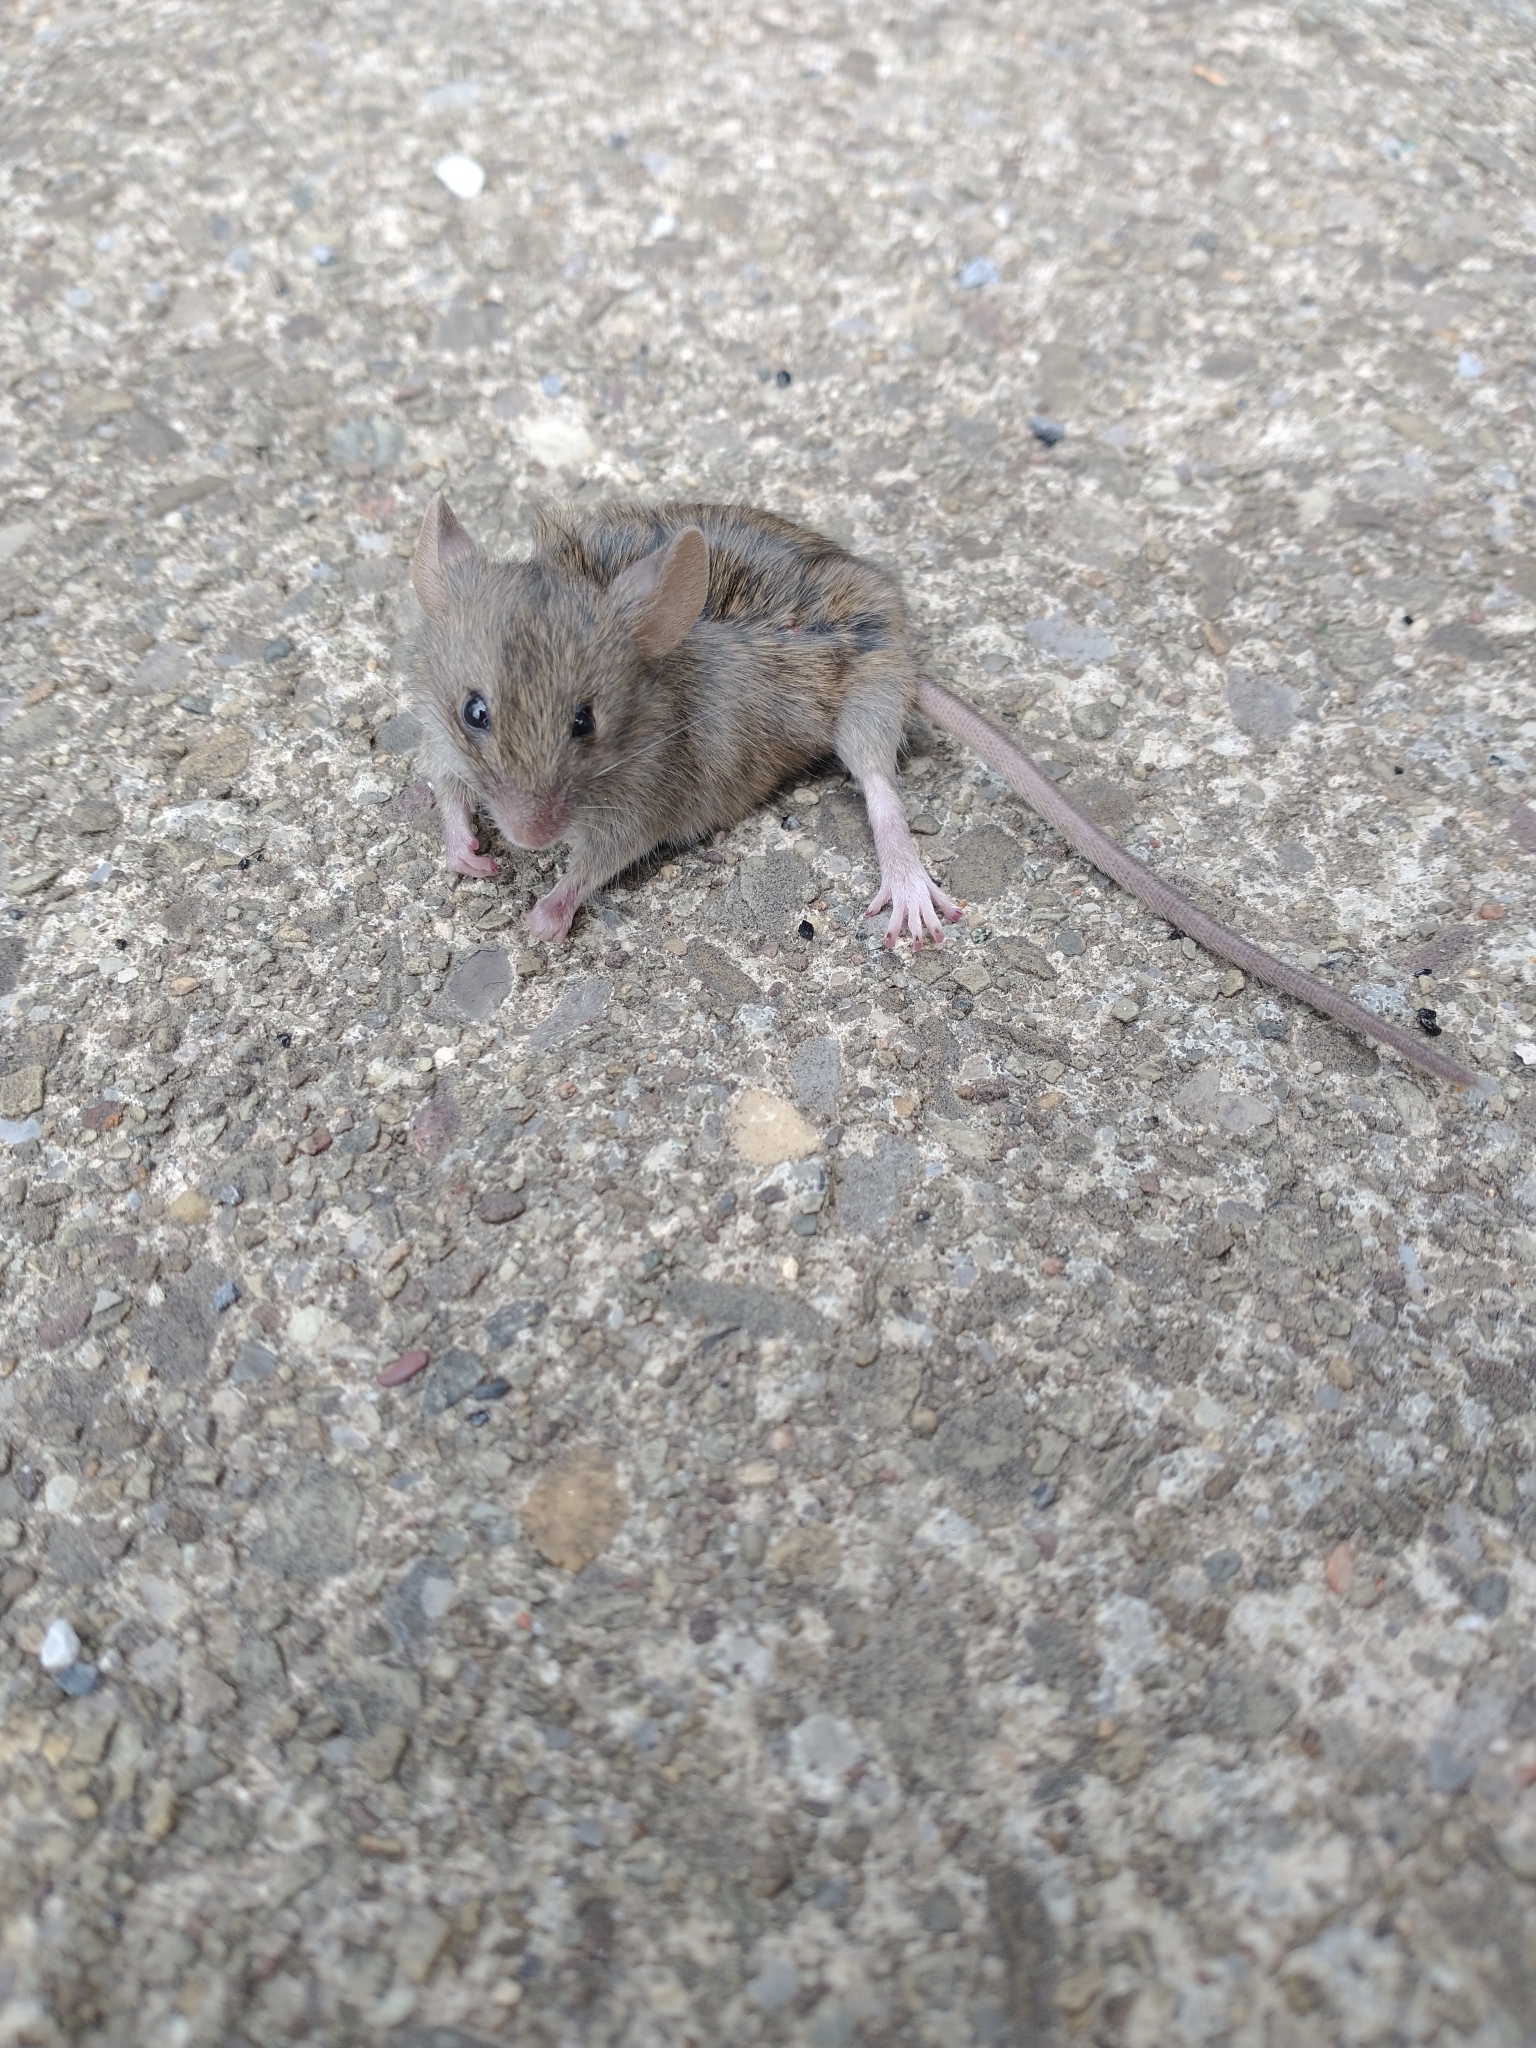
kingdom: Animalia
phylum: Chordata
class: Mammalia
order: Rodentia
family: Muridae
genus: Mus
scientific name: Mus musculus
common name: House mouse
